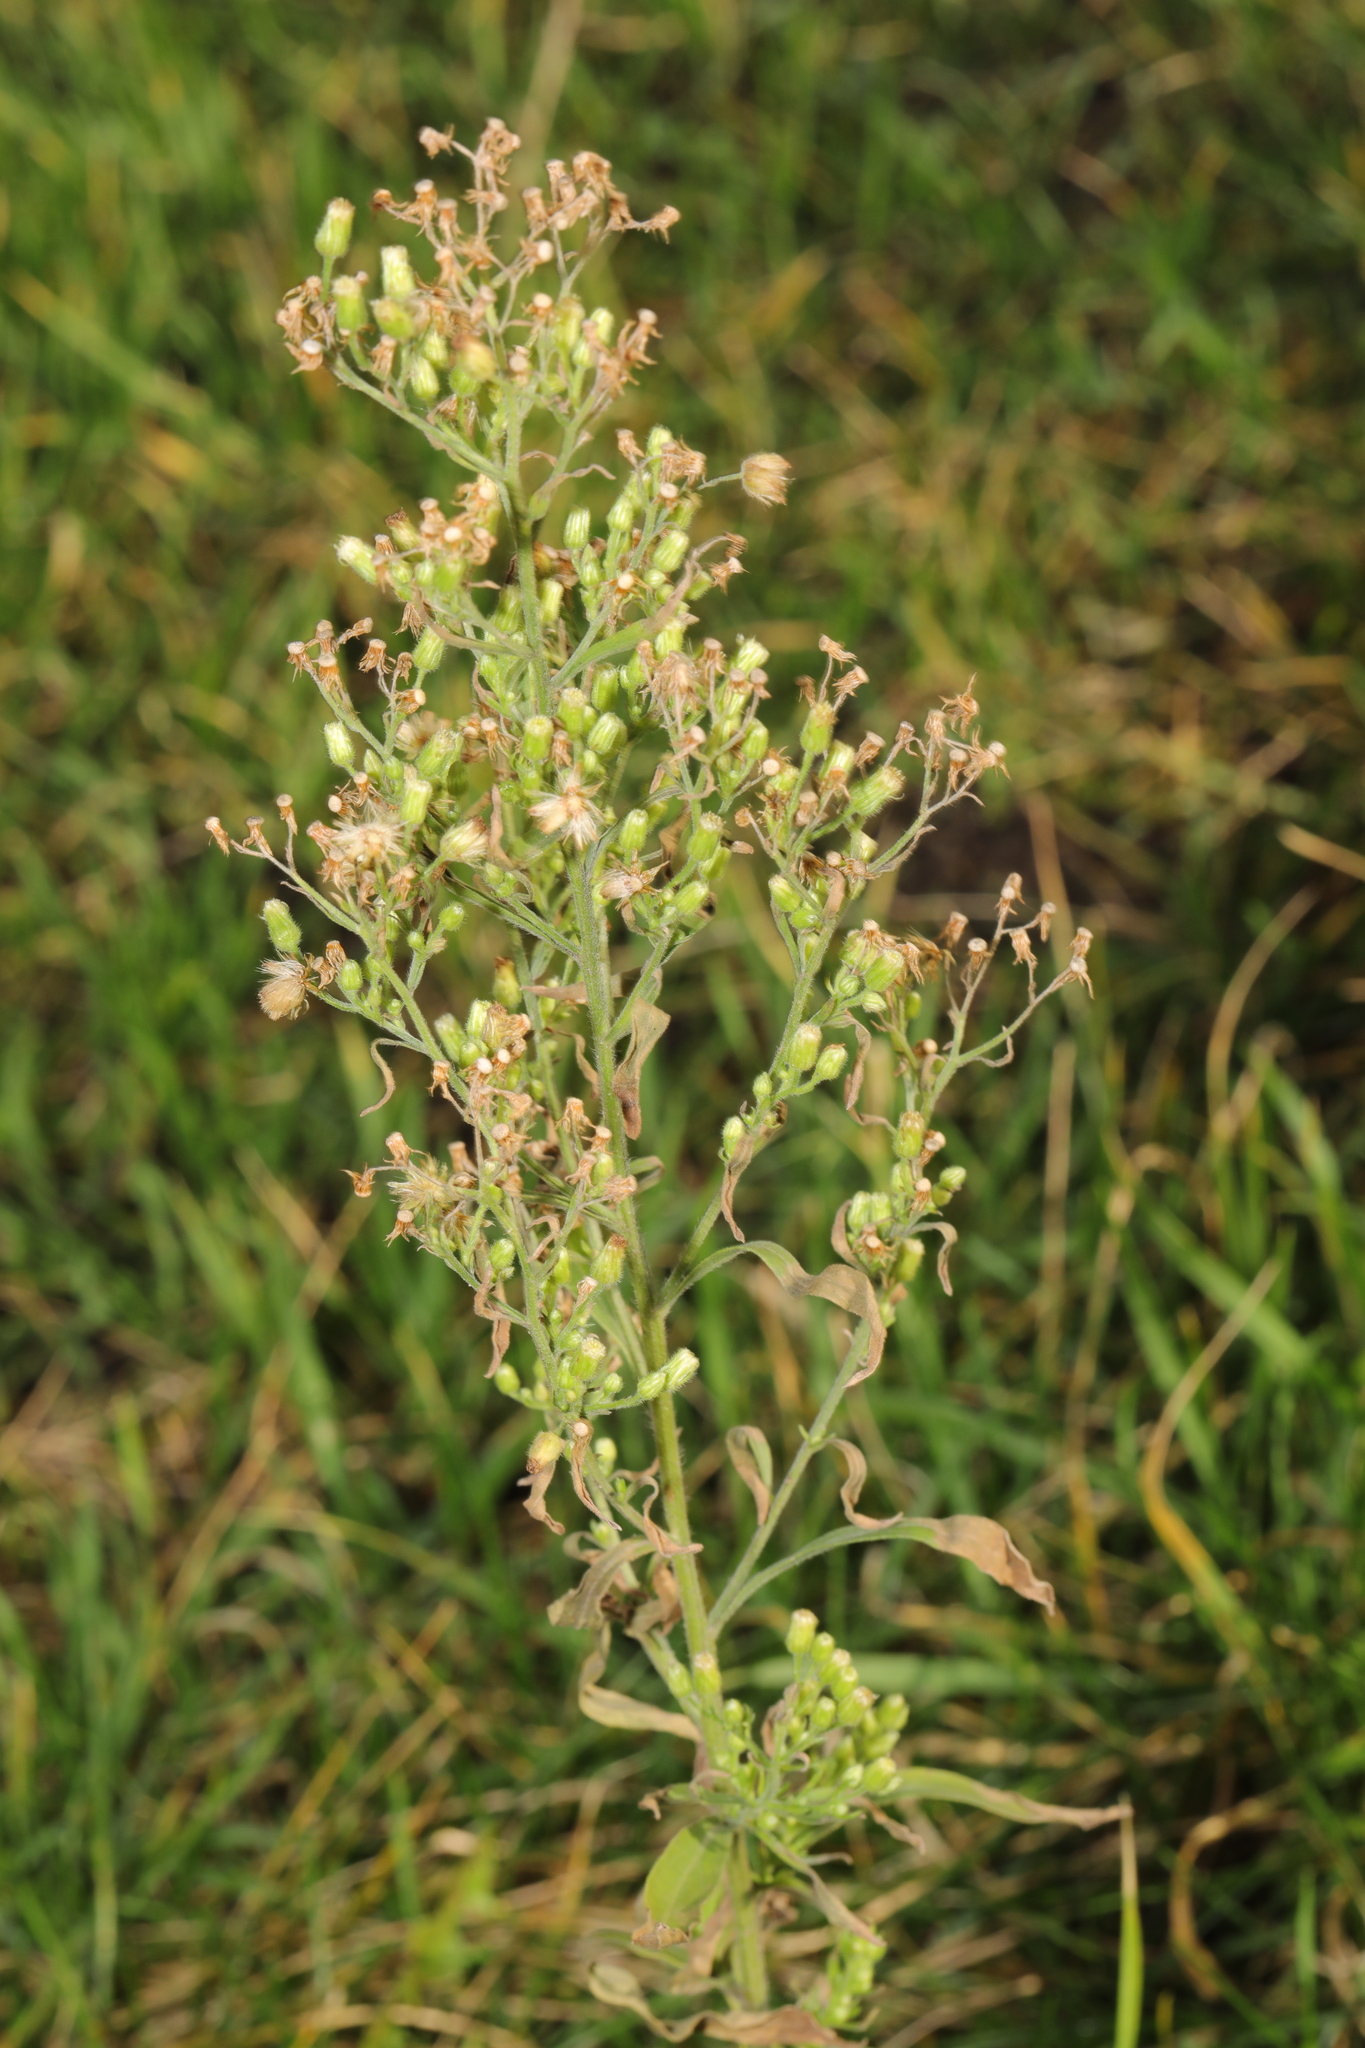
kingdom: Plantae
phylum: Tracheophyta
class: Magnoliopsida
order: Asterales
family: Asteraceae
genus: Erigeron
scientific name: Erigeron sumatrensis
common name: Daisy
